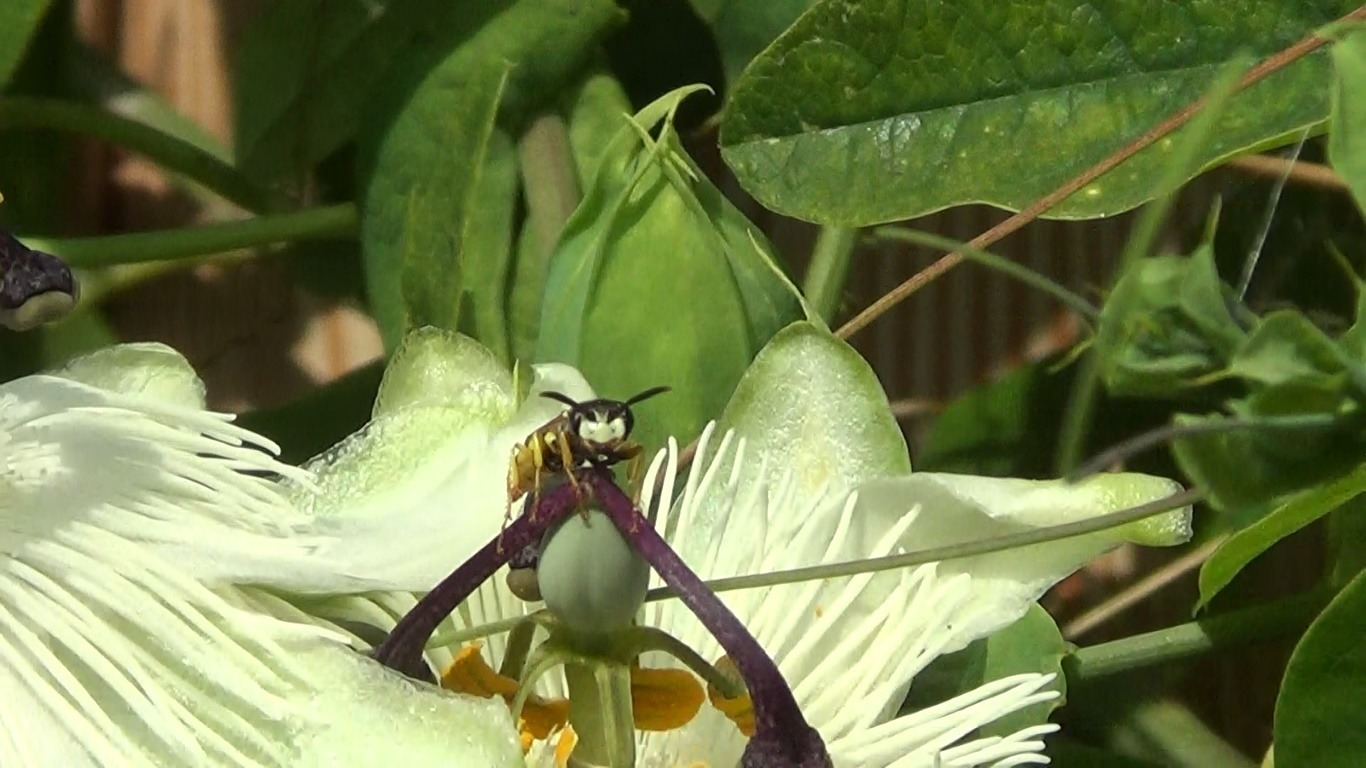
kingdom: Animalia
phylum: Arthropoda
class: Insecta
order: Hymenoptera
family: Crabronidae
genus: Philanthus
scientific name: Philanthus triangulum
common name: Bee wolf
